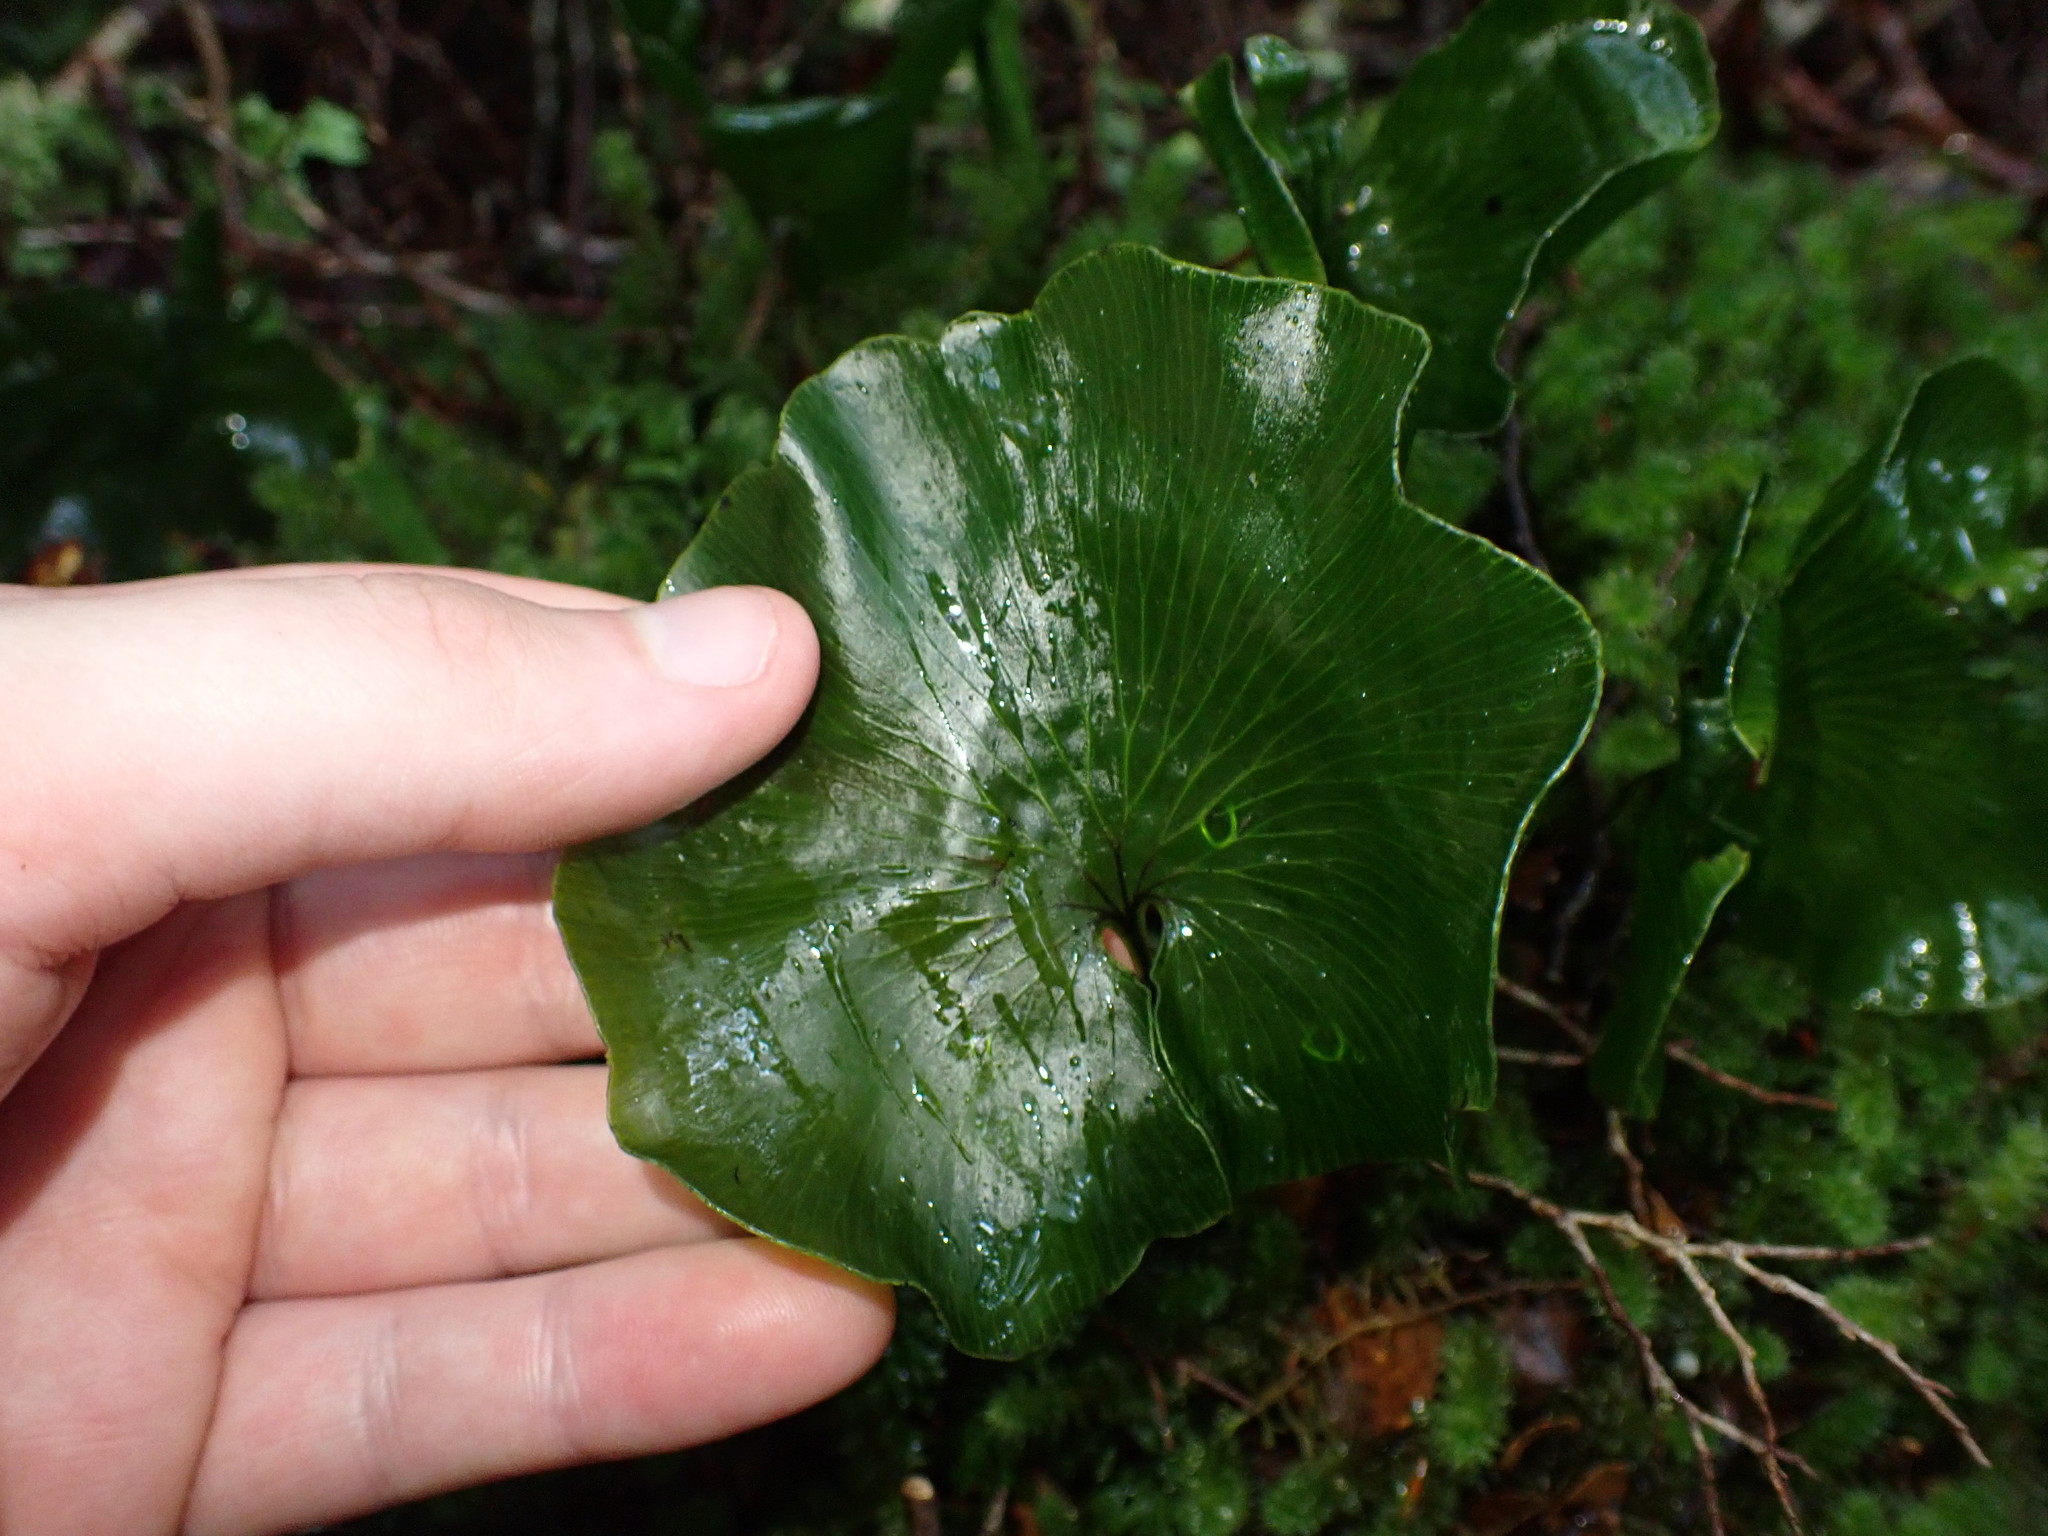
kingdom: Plantae
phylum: Tracheophyta
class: Polypodiopsida
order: Hymenophyllales
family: Hymenophyllaceae
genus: Hymenophyllum
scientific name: Hymenophyllum nephrophyllum
